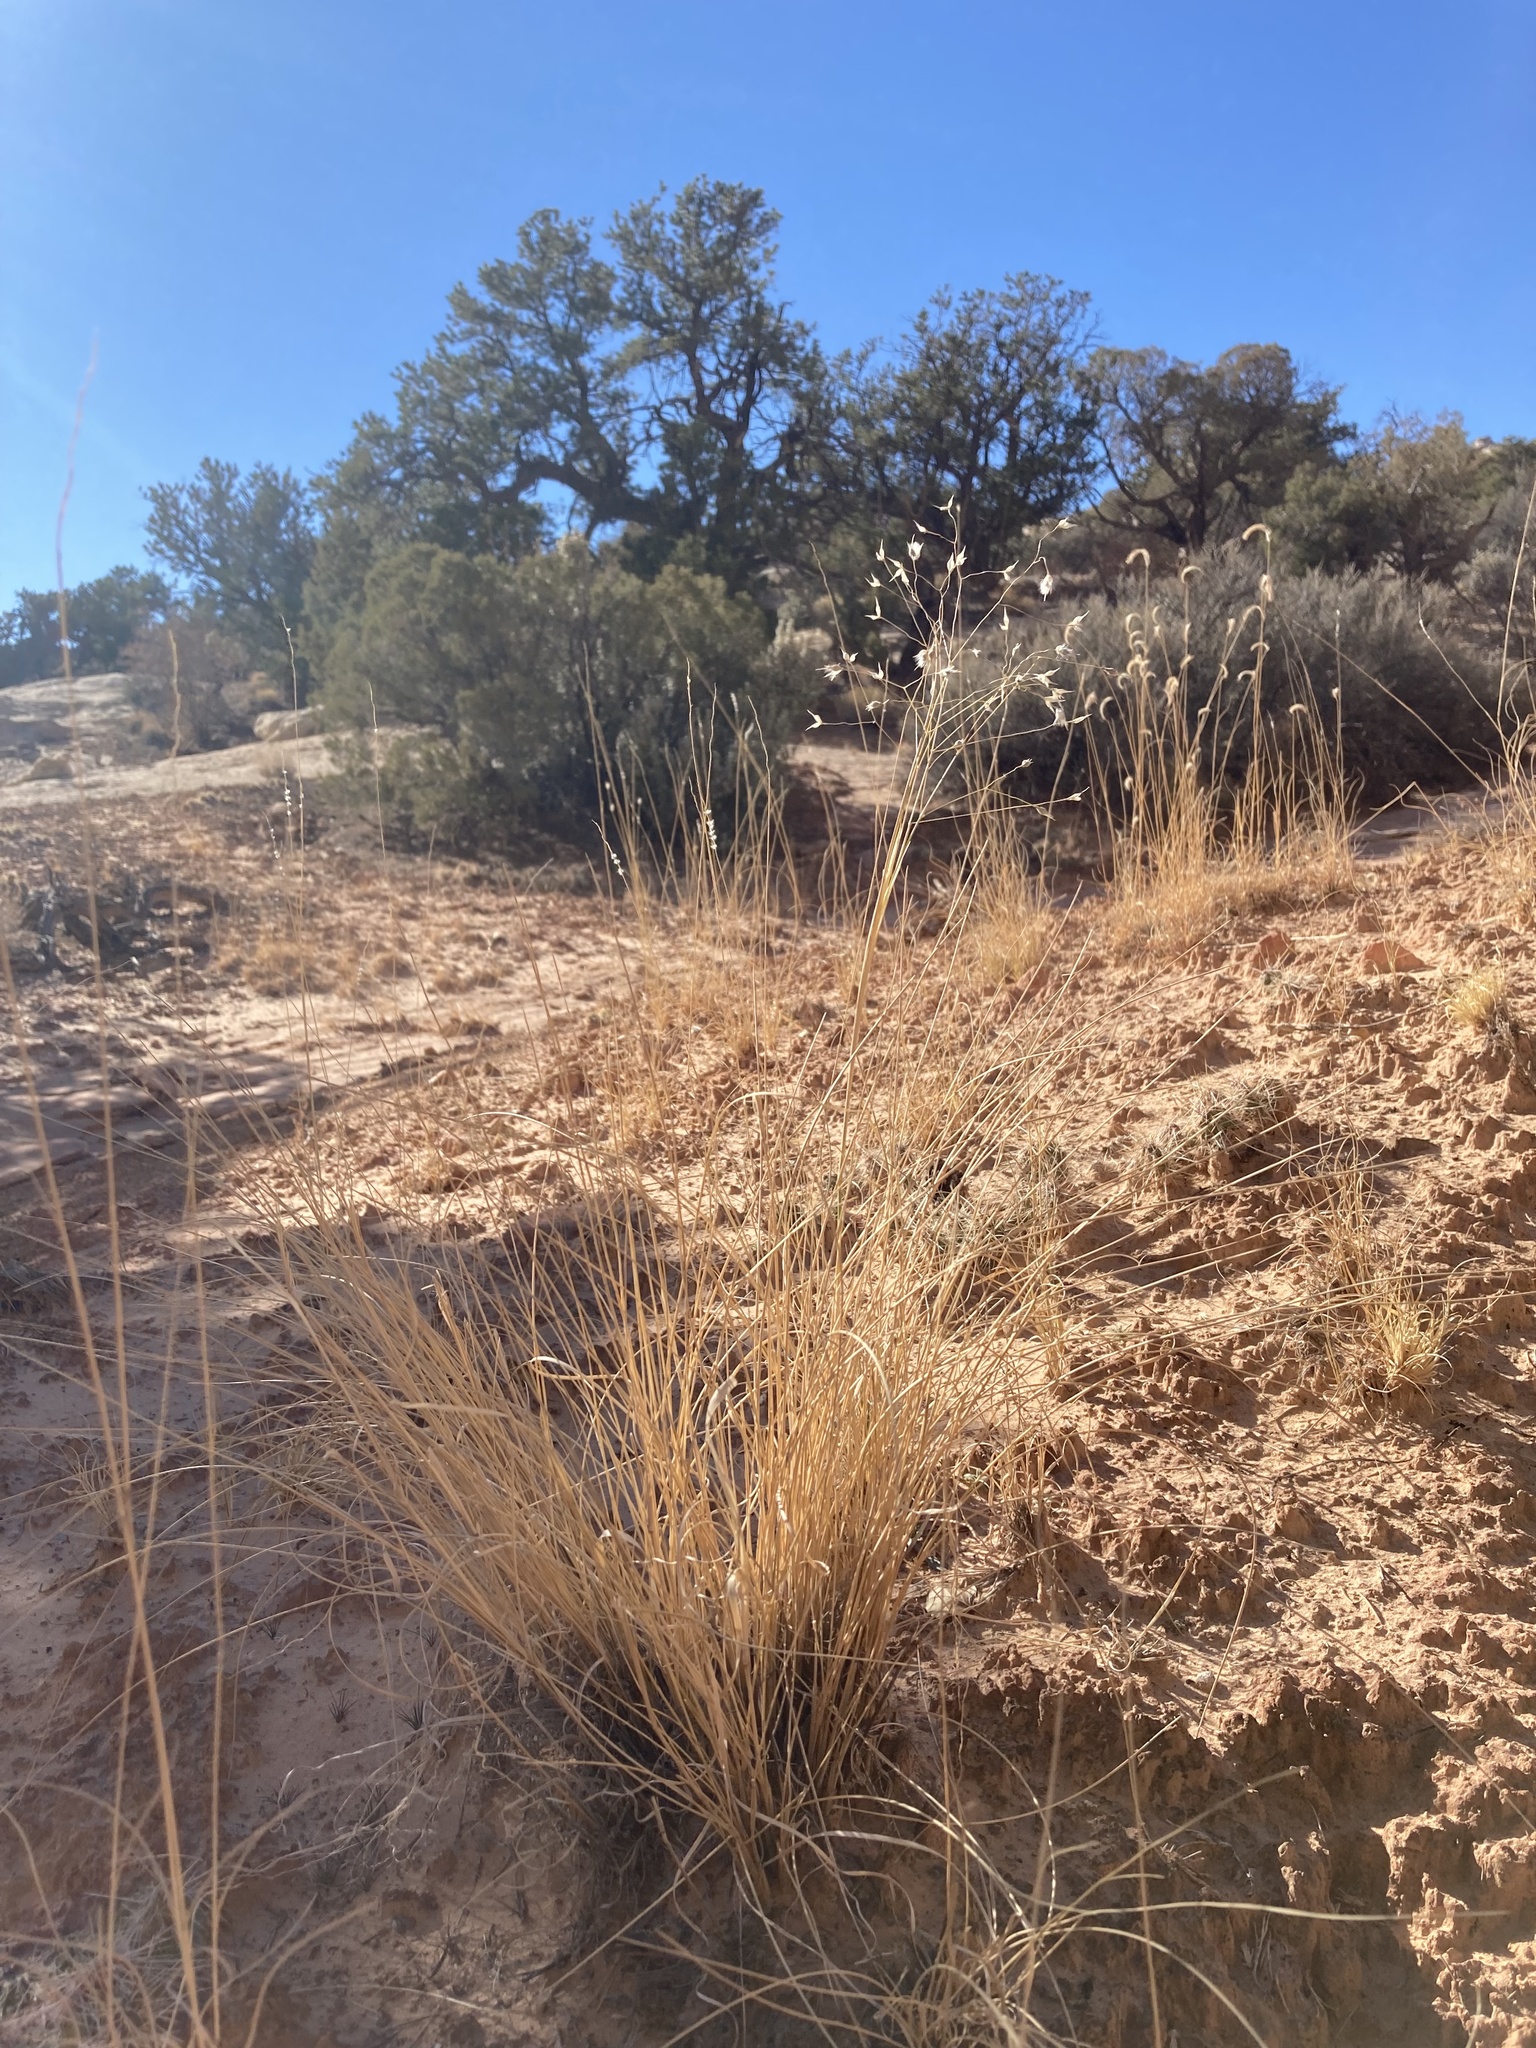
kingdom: Plantae
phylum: Tracheophyta
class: Liliopsida
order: Poales
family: Poaceae
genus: Eriocoma
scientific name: Eriocoma hymenoides
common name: Indian mountain ricegrass
